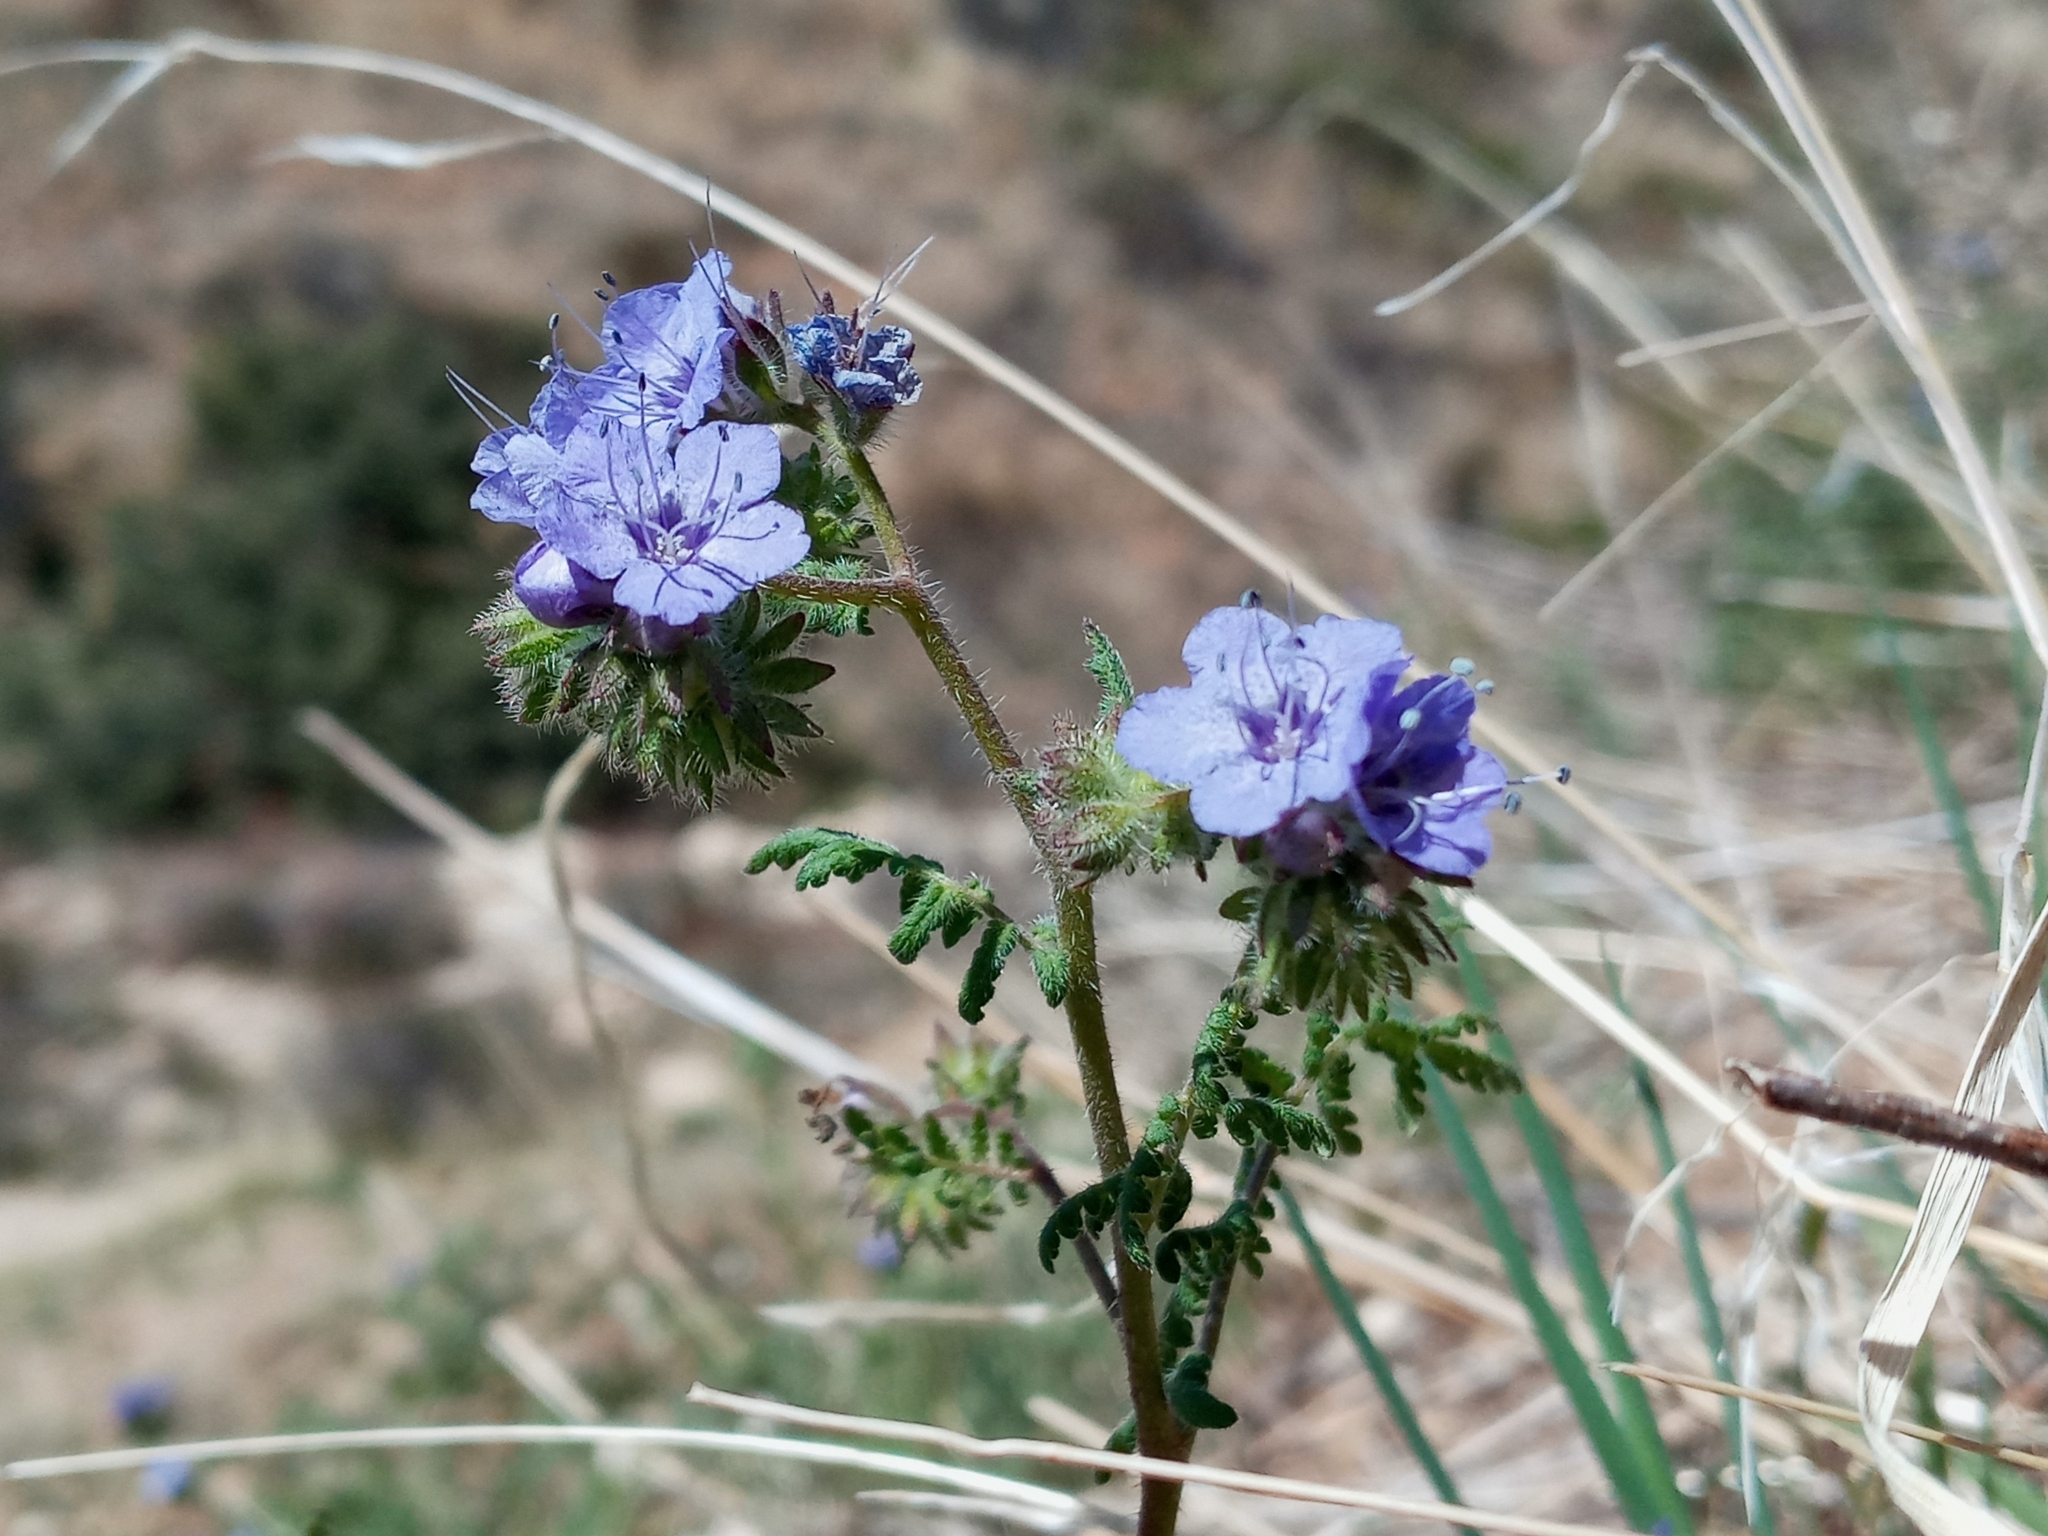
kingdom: Plantae
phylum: Tracheophyta
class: Magnoliopsida
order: Boraginales
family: Hydrophyllaceae
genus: Phacelia
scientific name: Phacelia distans
